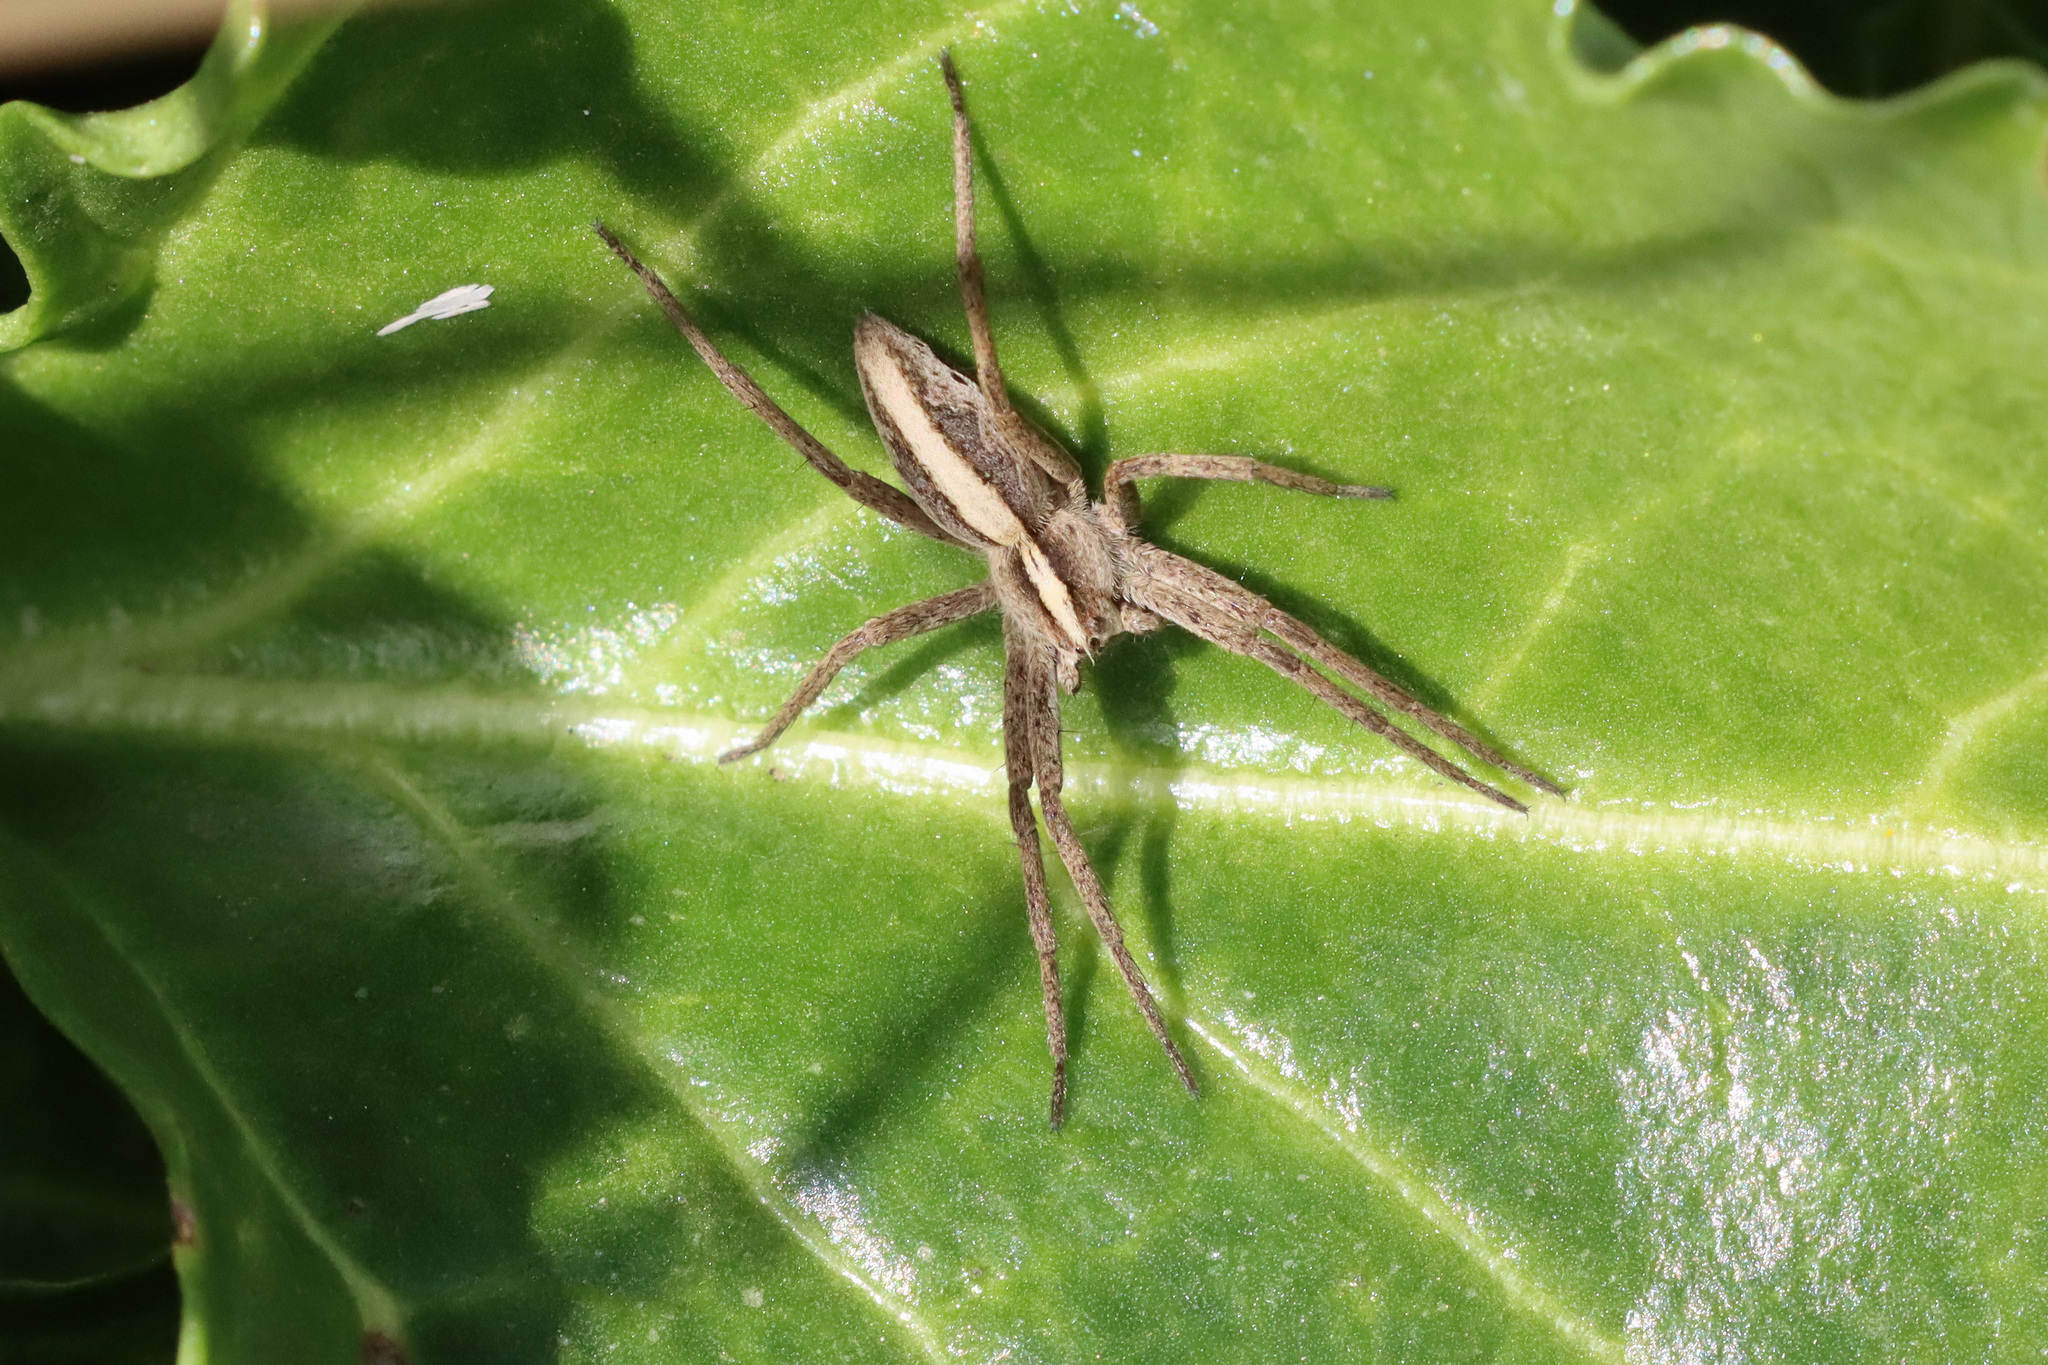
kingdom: Animalia
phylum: Arthropoda
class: Arachnida
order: Araneae
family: Pisauridae
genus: Pisaura
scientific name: Pisaura mirabilis
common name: Tent spider
